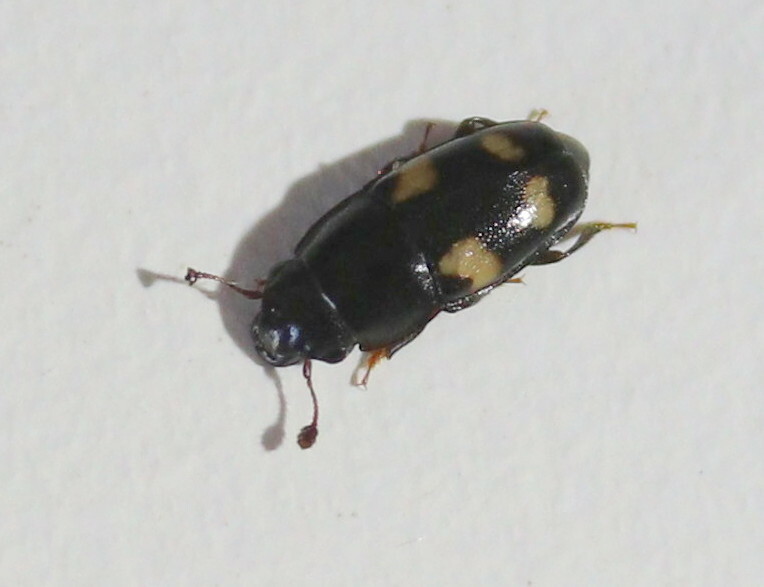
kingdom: Animalia
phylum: Arthropoda
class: Insecta
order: Coleoptera
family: Nitidulidae
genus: Glischrochilus
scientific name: Glischrochilus quadrisignatus
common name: Picnic beetle
